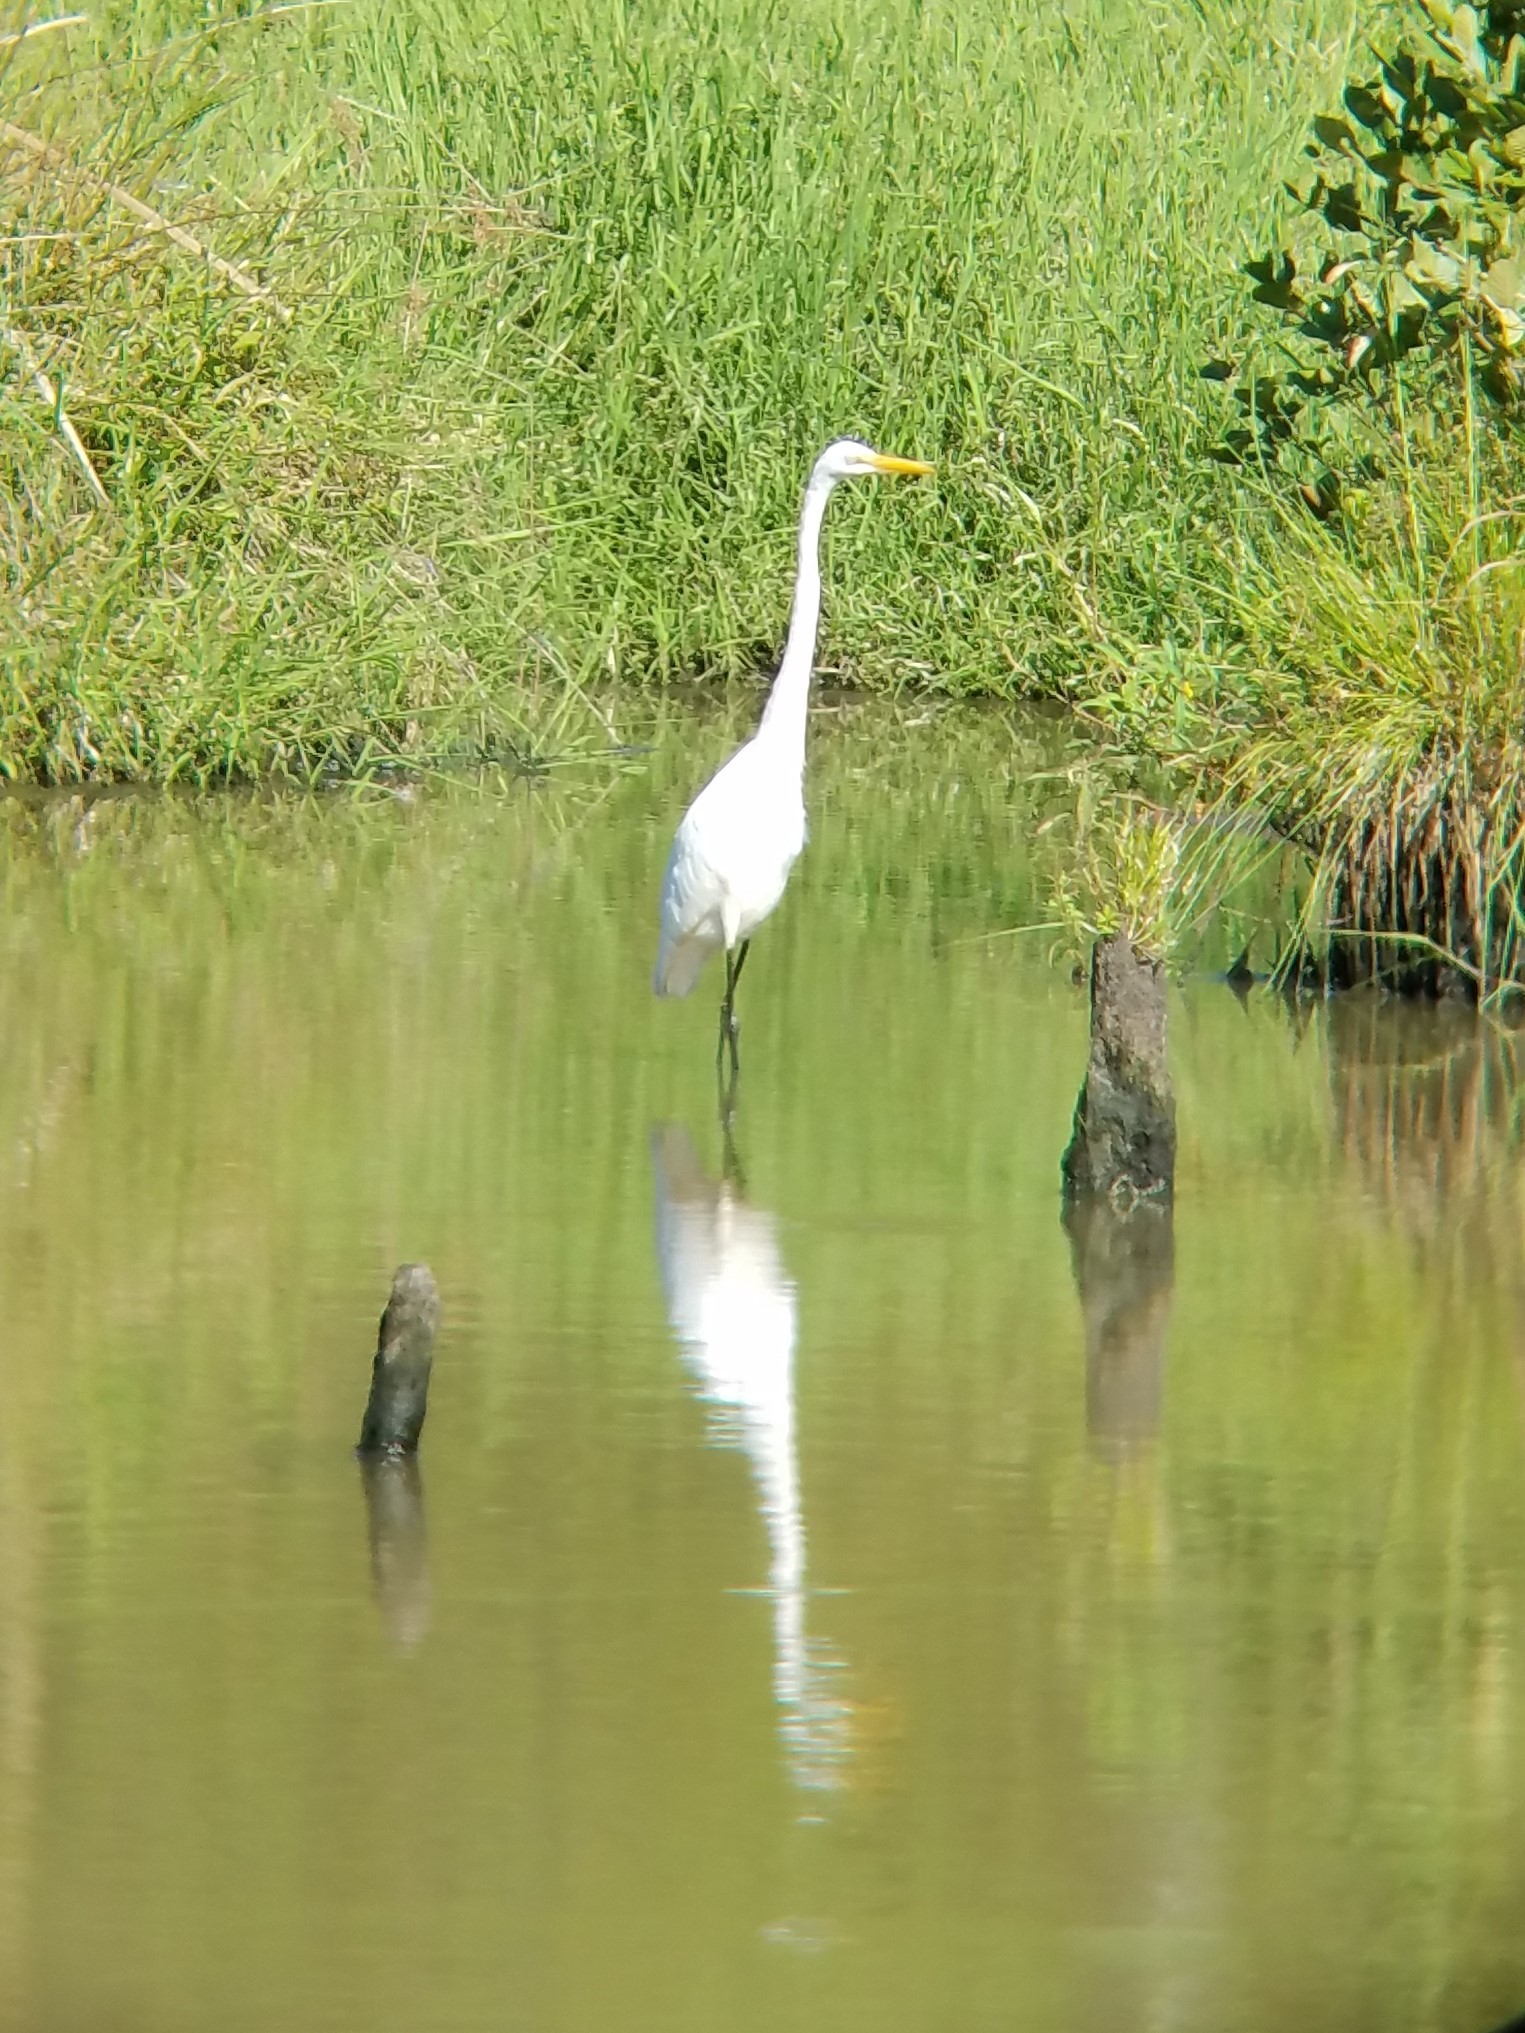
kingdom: Animalia
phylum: Chordata
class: Aves
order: Pelecaniformes
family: Ardeidae
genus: Ardea
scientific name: Ardea alba
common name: Great egret
